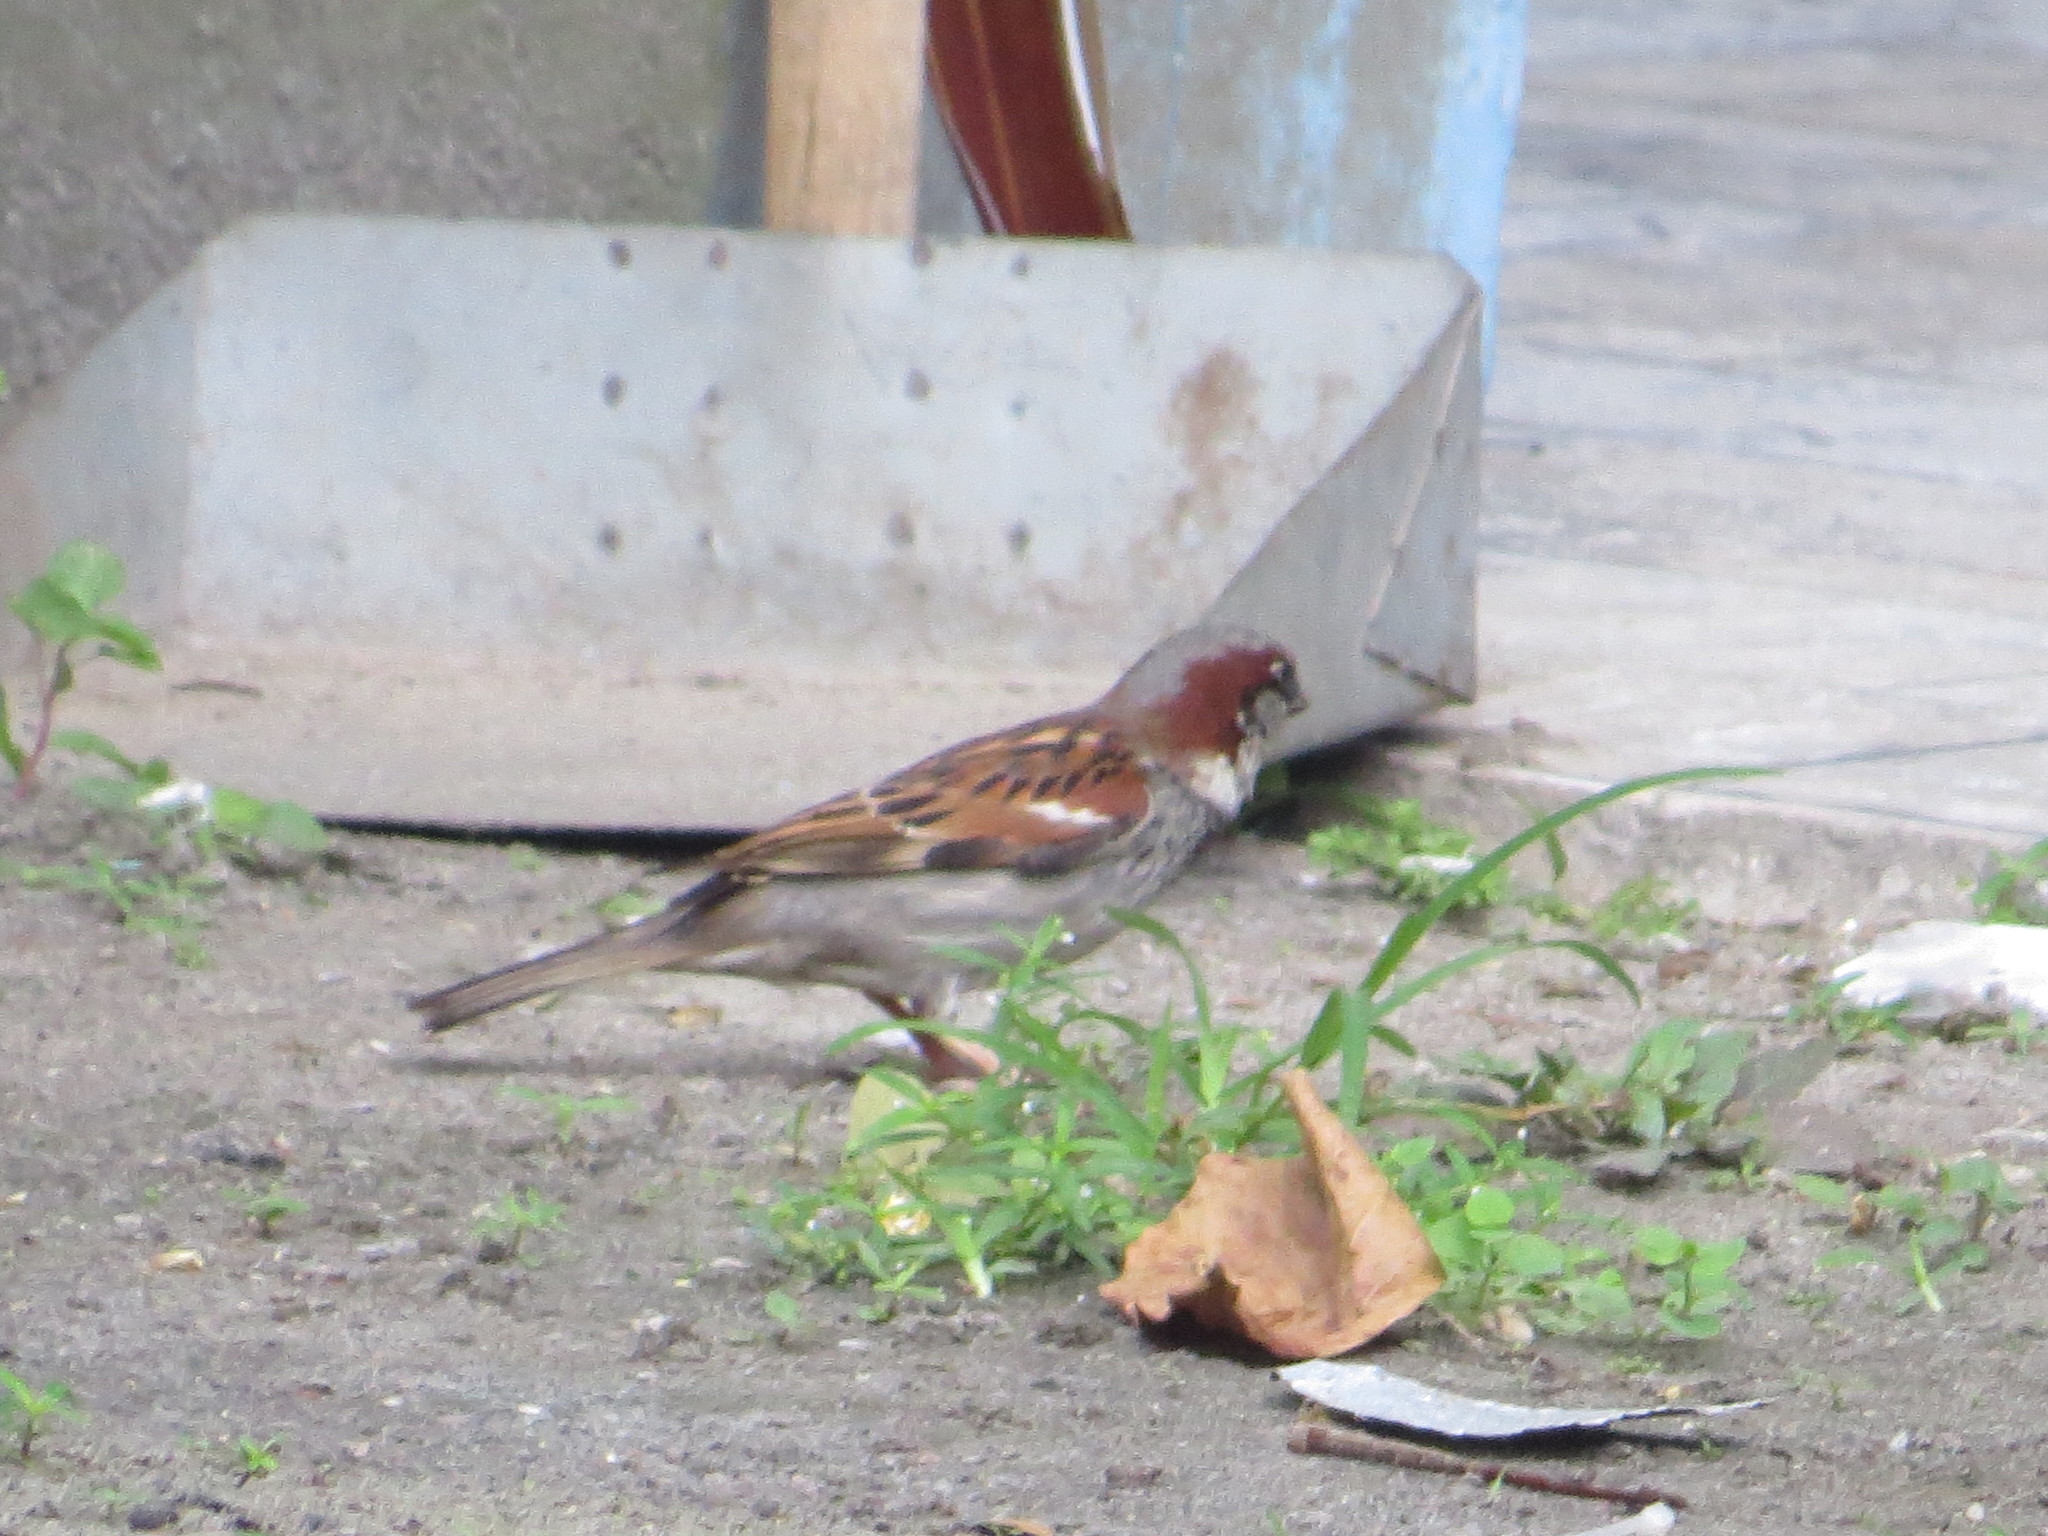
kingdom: Animalia
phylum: Chordata
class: Aves
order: Passeriformes
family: Passeridae
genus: Passer
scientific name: Passer domesticus
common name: House sparrow
